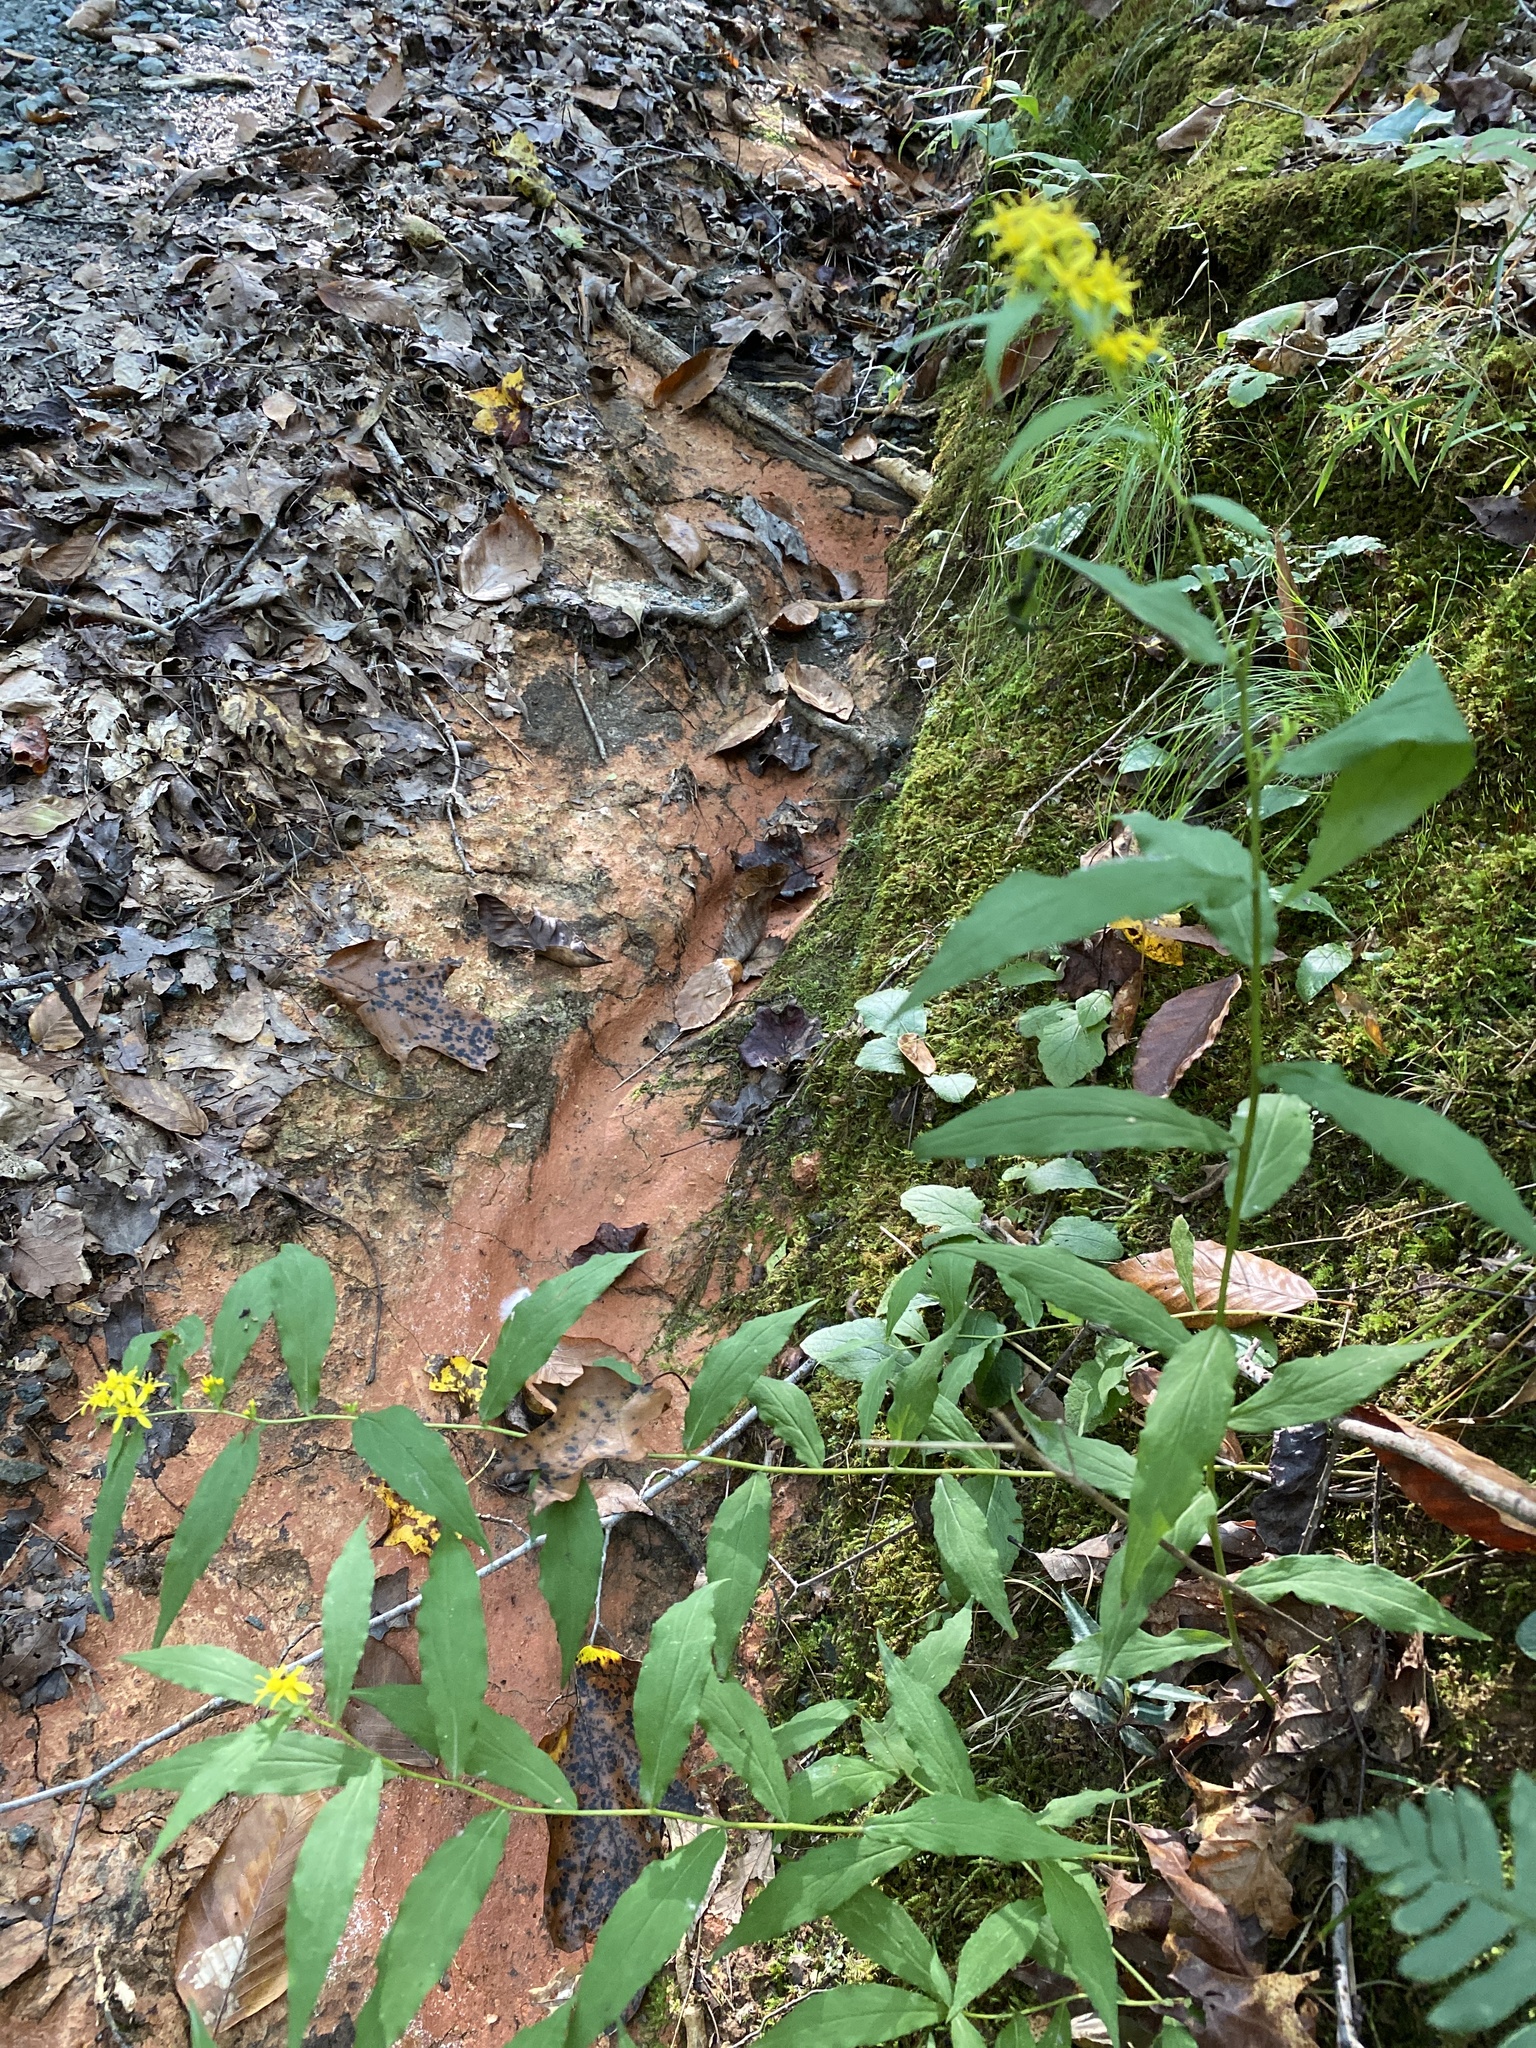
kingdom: Plantae
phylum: Tracheophyta
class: Magnoliopsida
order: Asterales
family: Asteraceae
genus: Solidago
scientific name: Solidago caesia
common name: Woodland goldenrod
